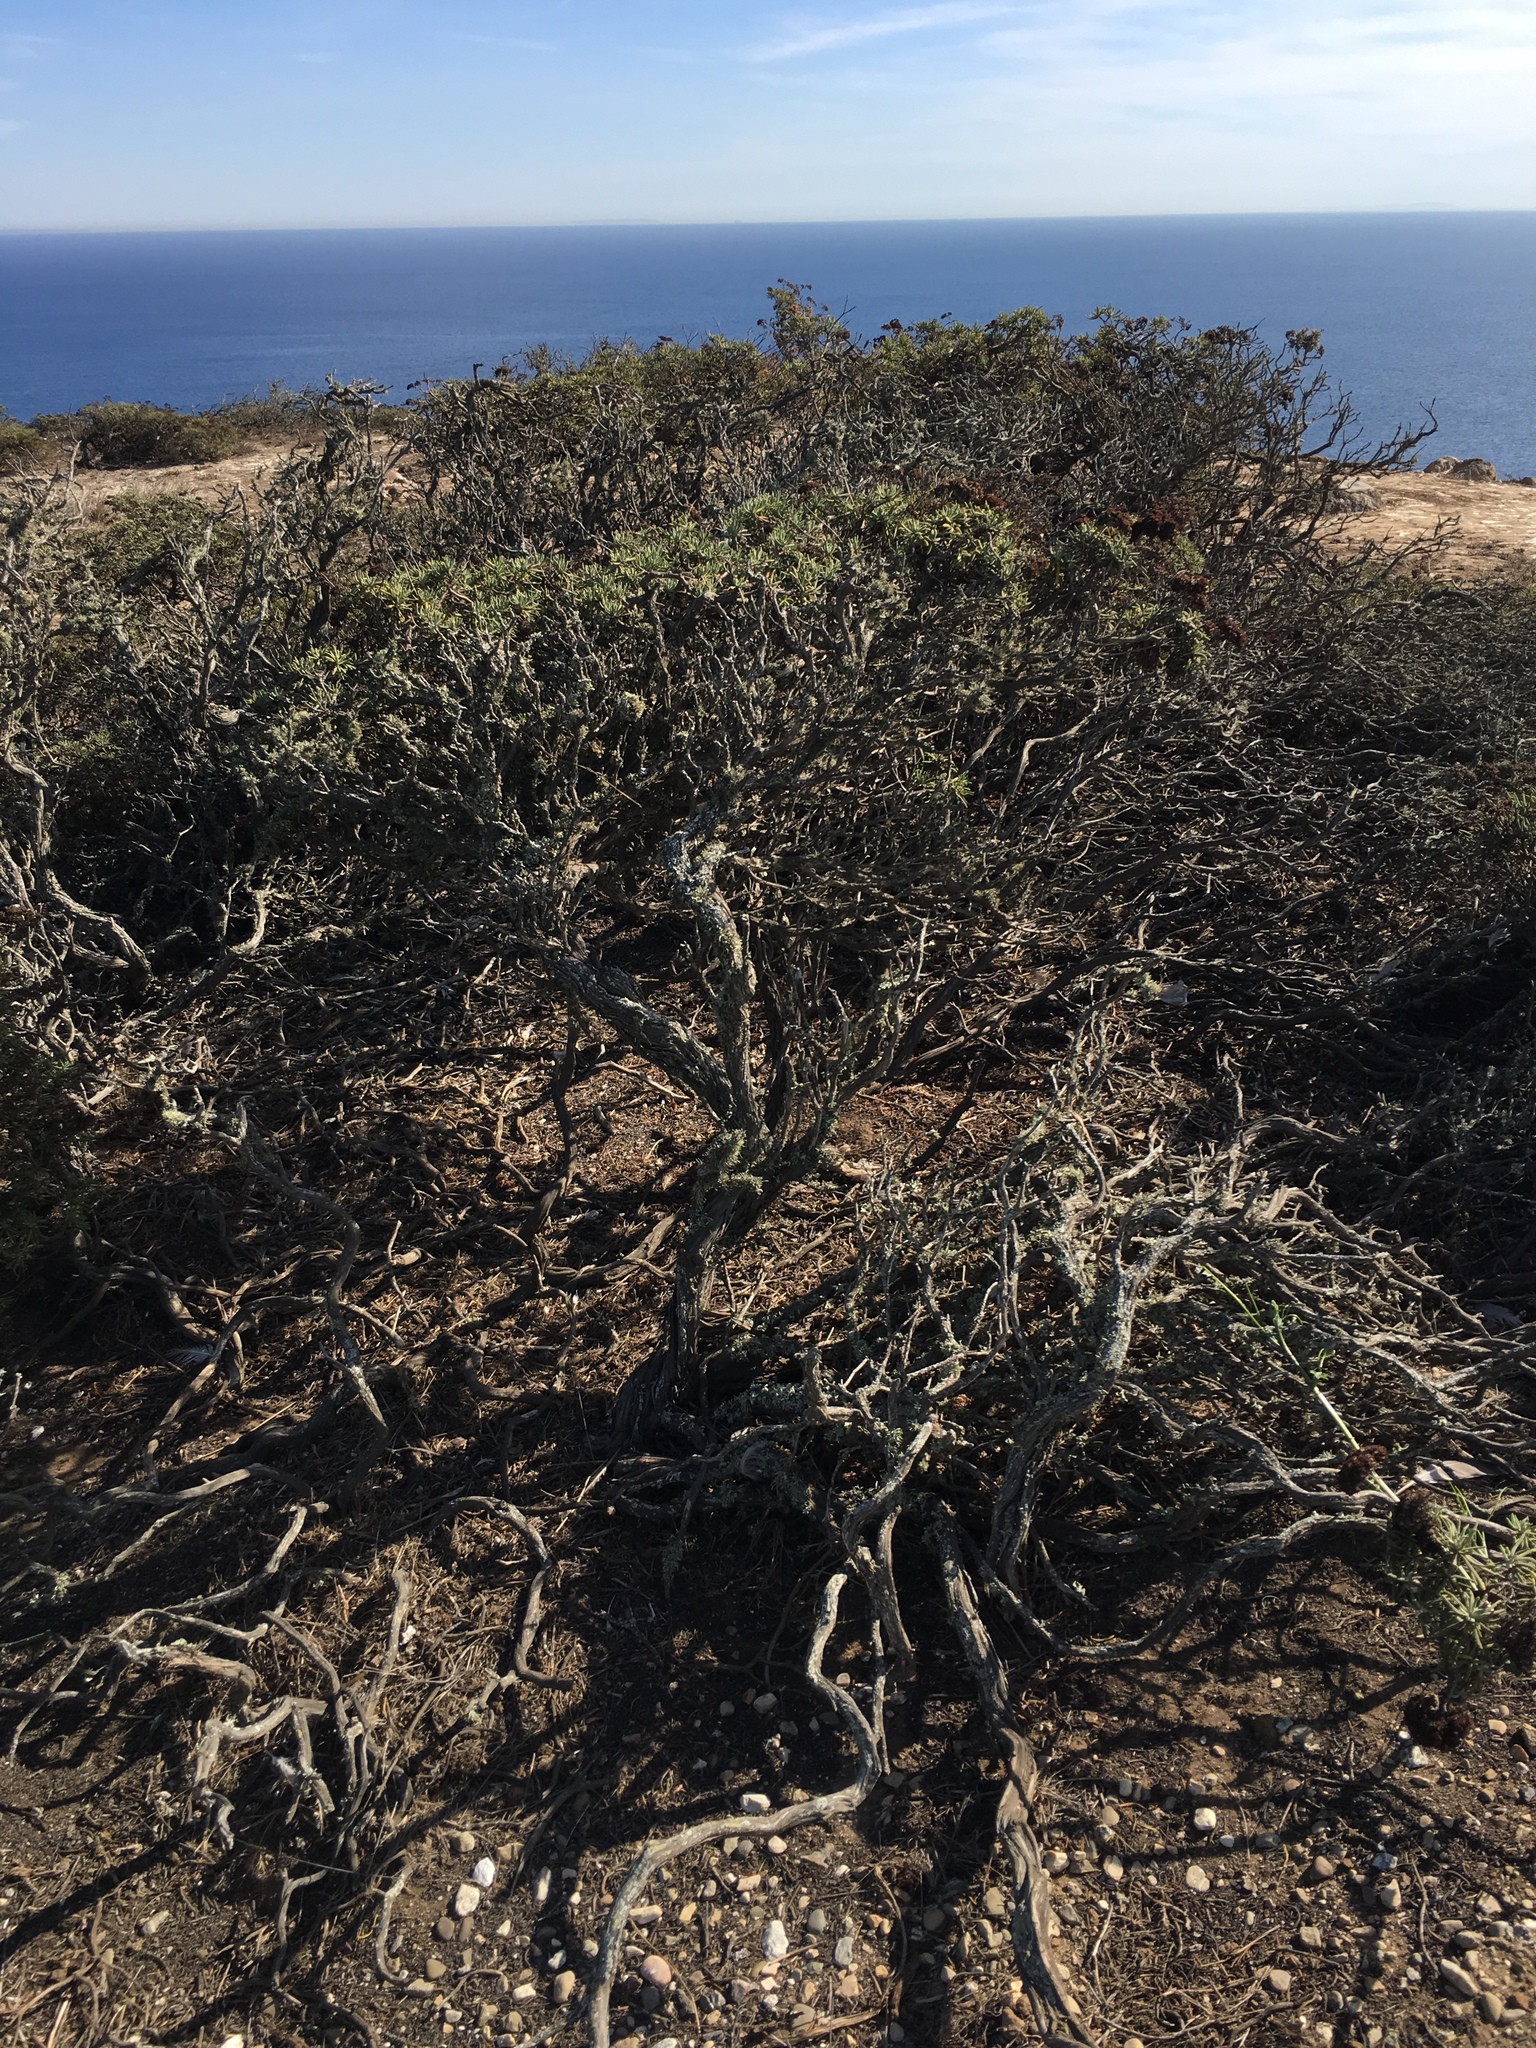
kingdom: Plantae
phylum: Tracheophyta
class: Magnoliopsida
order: Caryophyllales
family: Polygonaceae
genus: Eriogonum
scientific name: Eriogonum arborescens
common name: Island buckwheat
